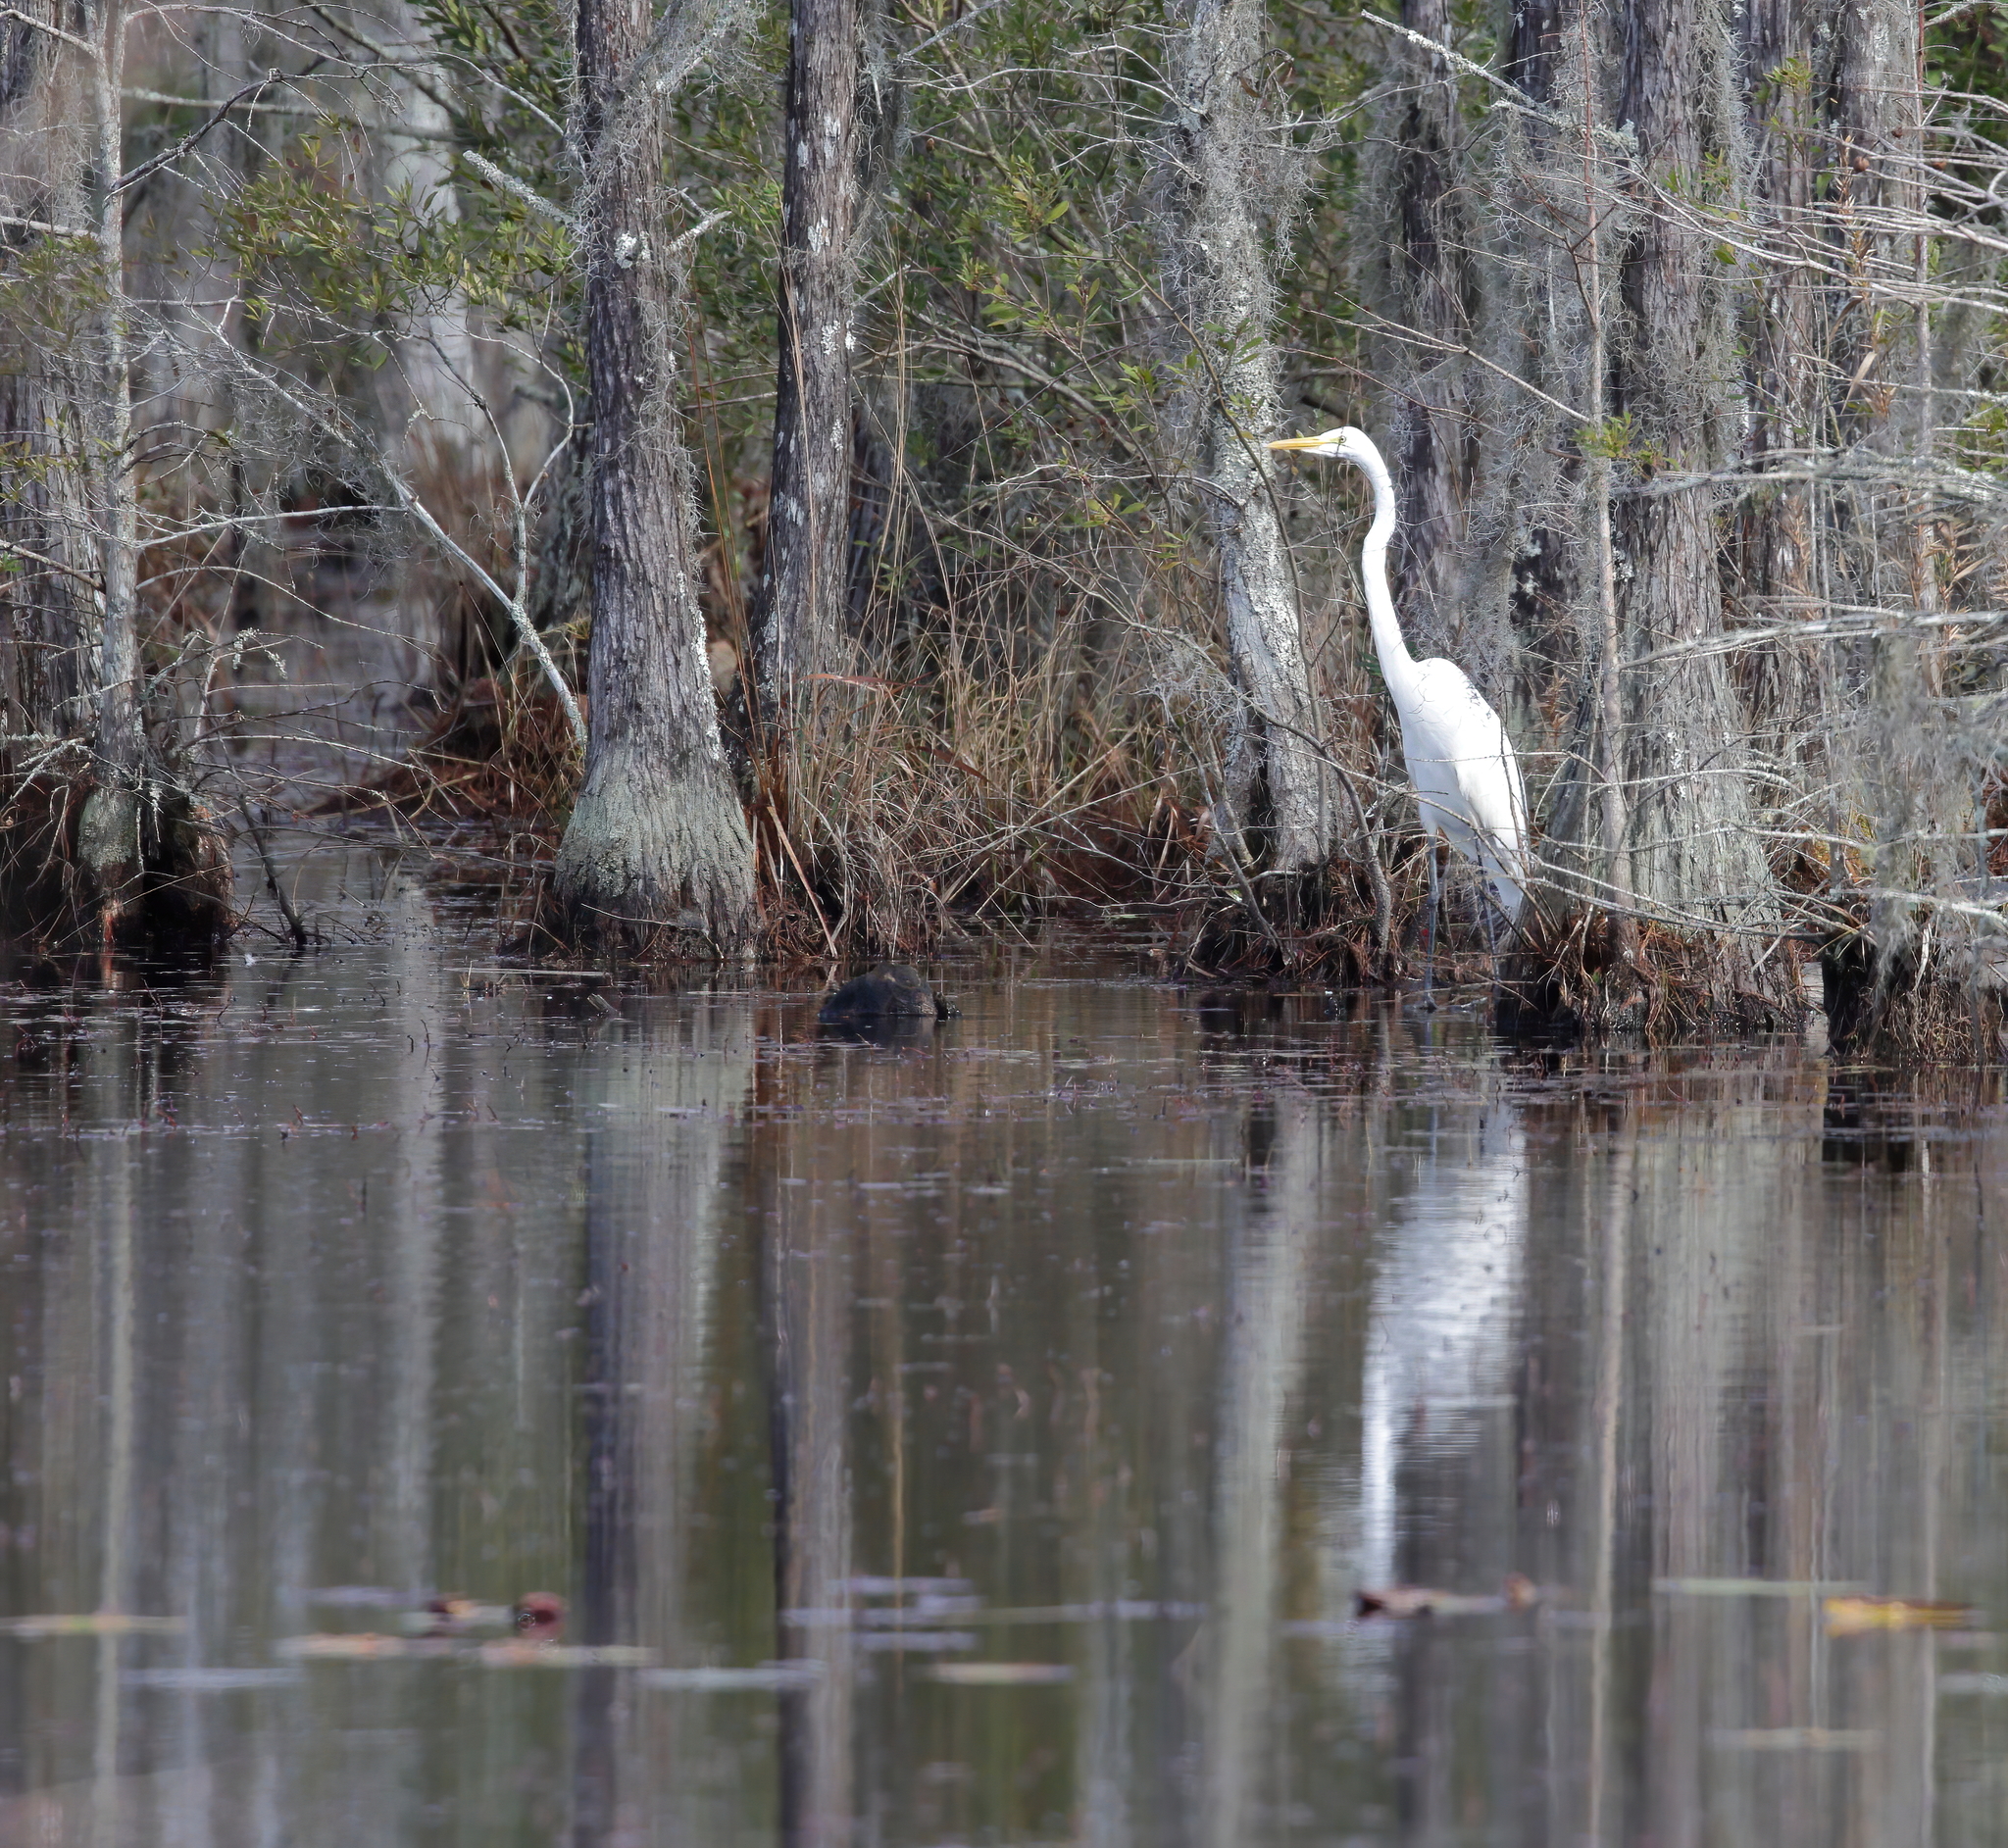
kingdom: Animalia
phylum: Chordata
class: Aves
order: Pelecaniformes
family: Ardeidae
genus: Ardea
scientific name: Ardea alba
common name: Great egret
